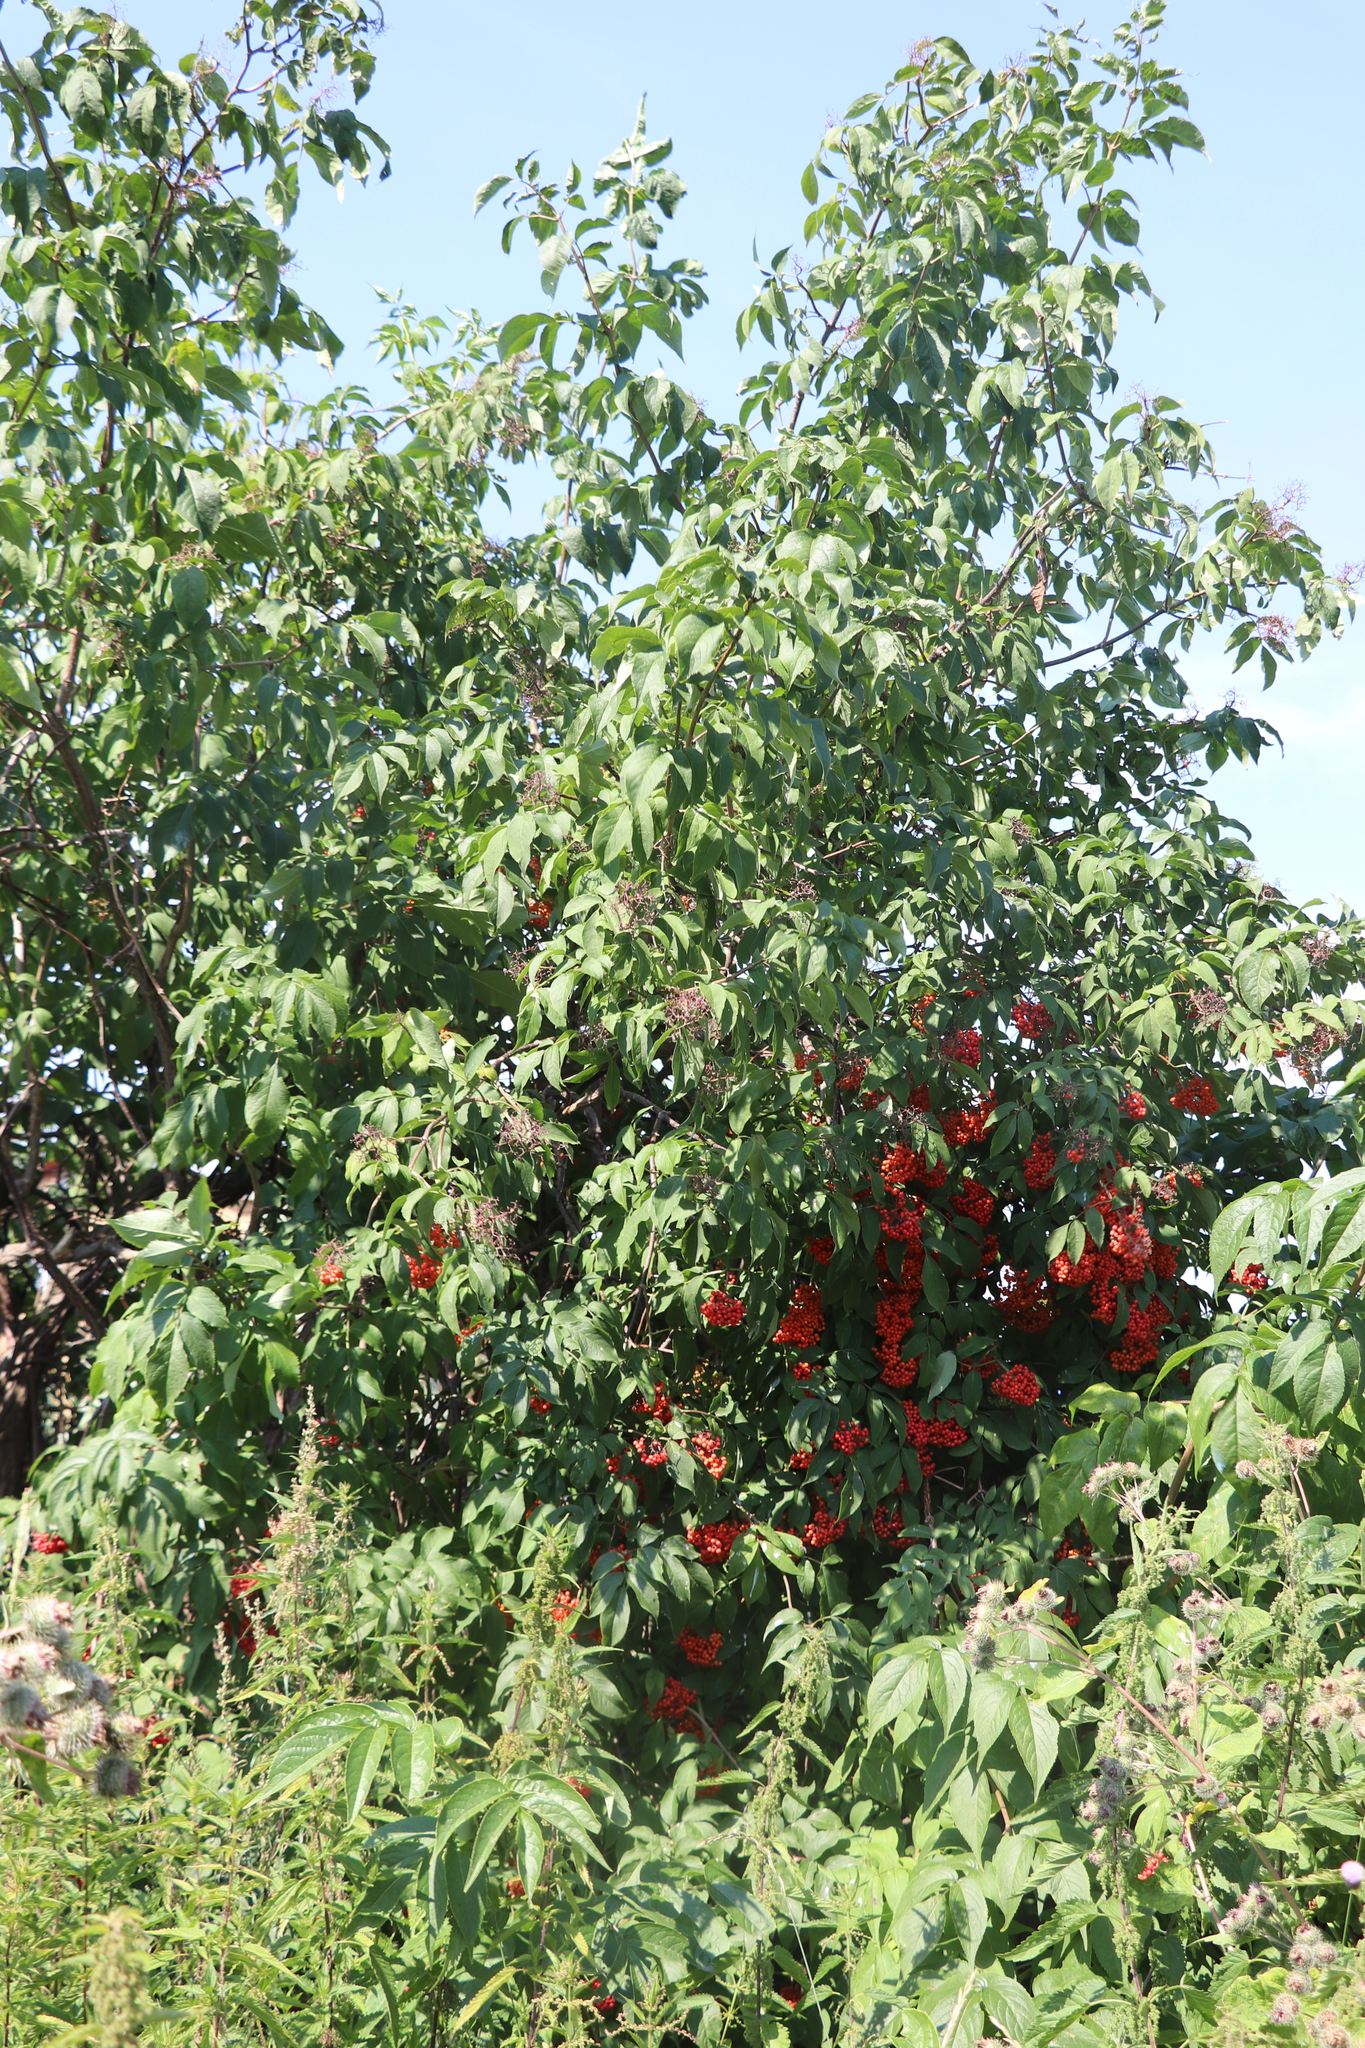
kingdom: Plantae
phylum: Tracheophyta
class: Magnoliopsida
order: Dipsacales
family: Viburnaceae
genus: Sambucus
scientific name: Sambucus sibirica
